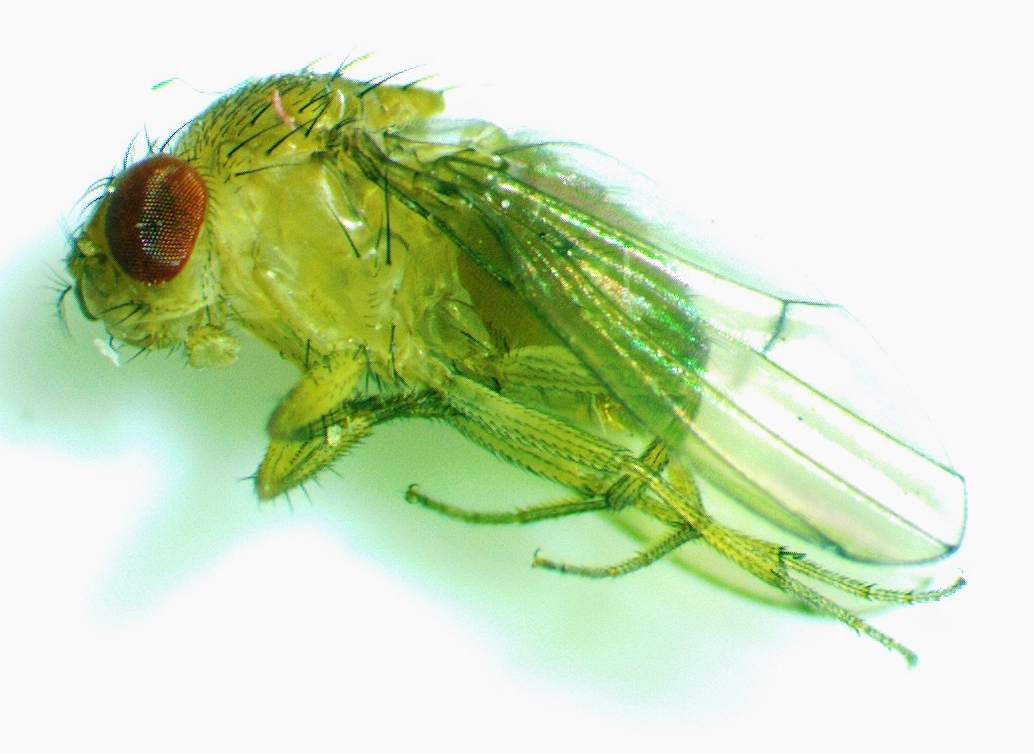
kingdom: Animalia
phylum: Arthropoda
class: Insecta
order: Diptera
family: Drosophilidae
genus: Drosophila
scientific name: Drosophila immigrans
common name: Pomace fly
